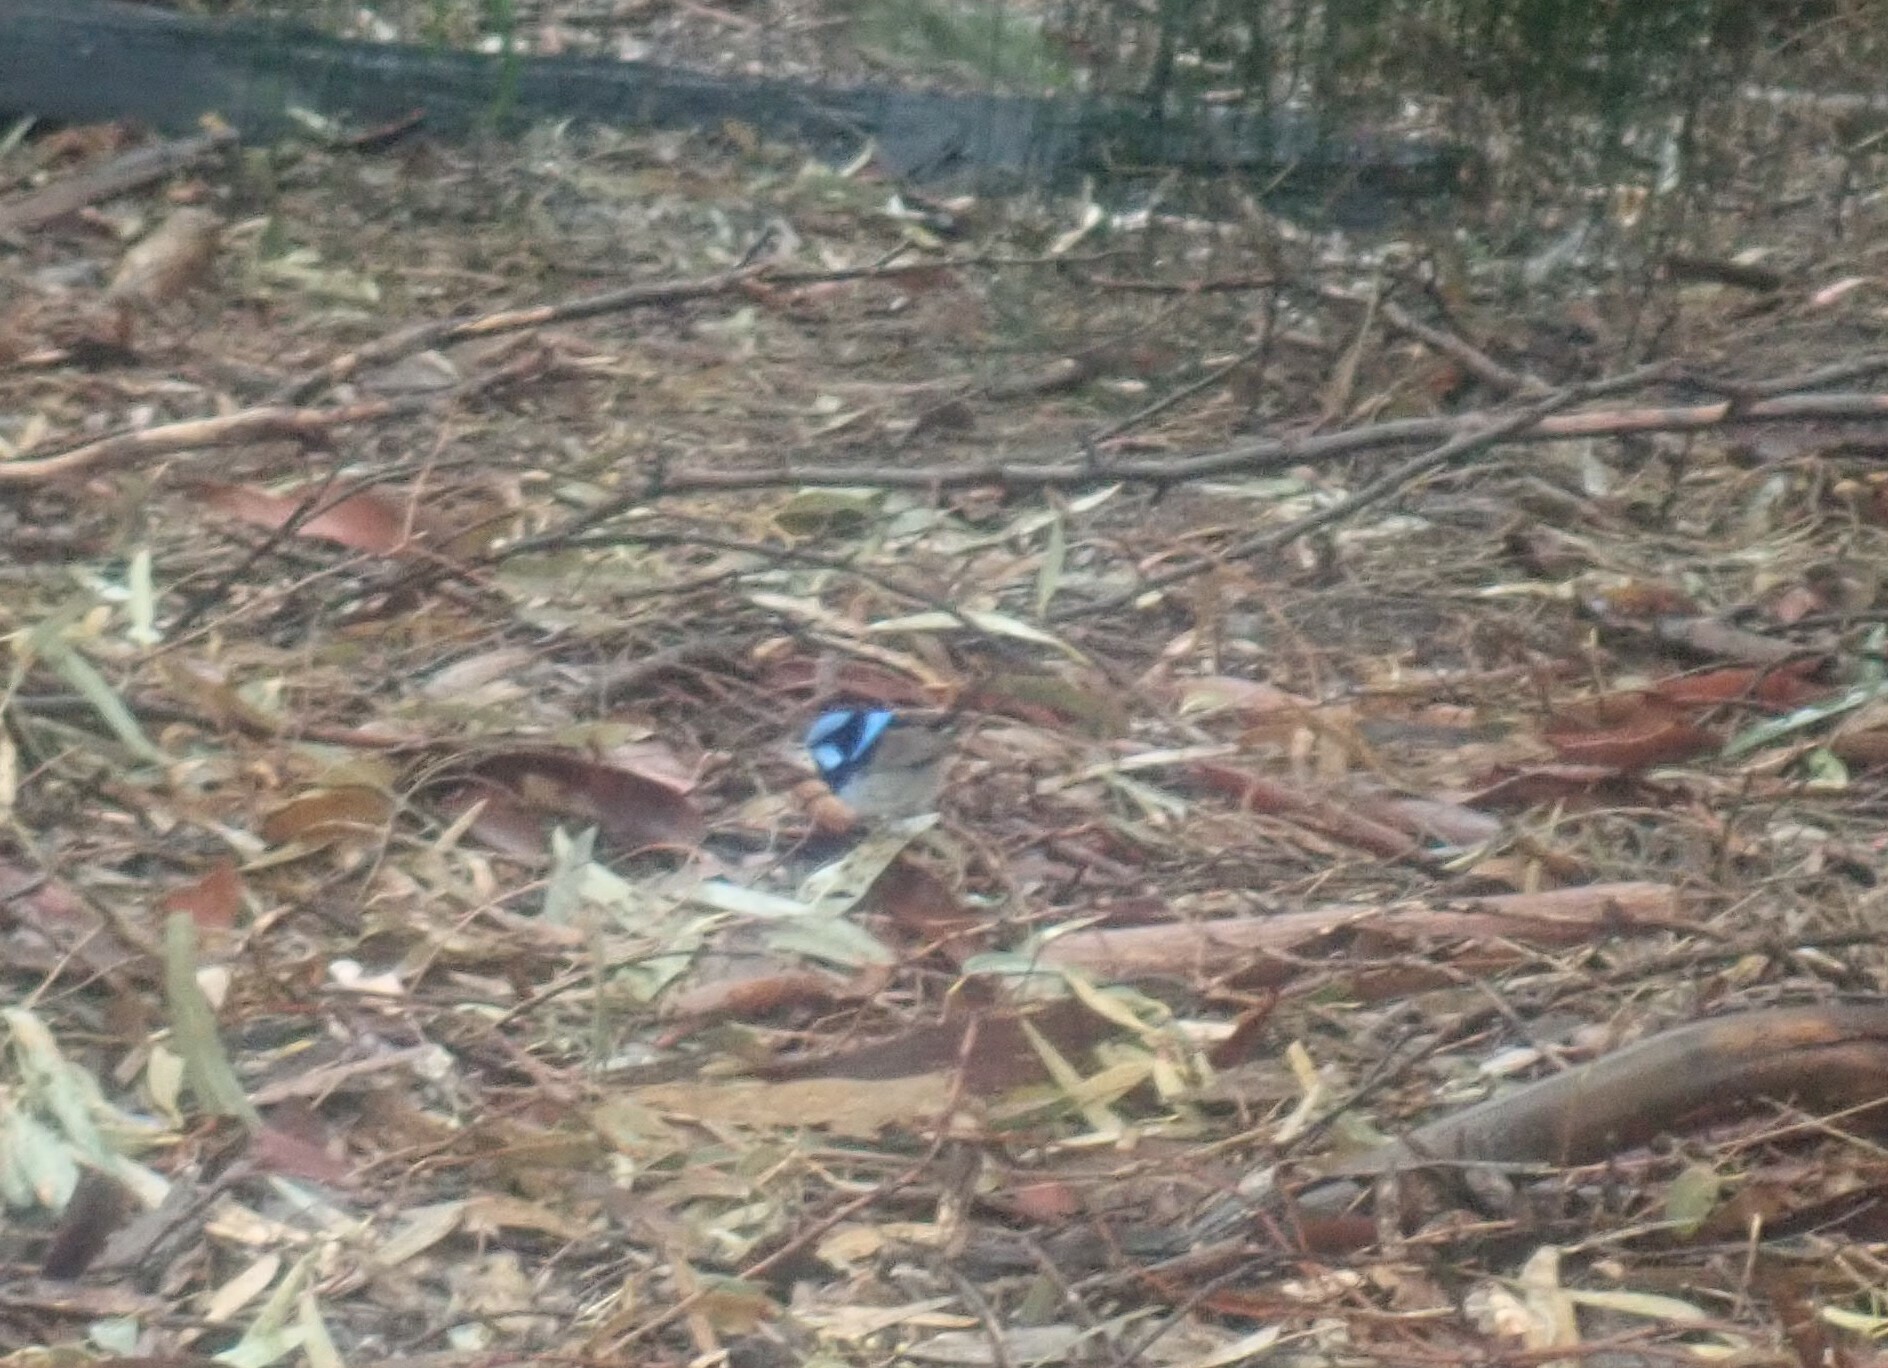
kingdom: Animalia
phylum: Chordata
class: Aves
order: Passeriformes
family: Maluridae
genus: Malurus
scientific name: Malurus cyaneus
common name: Superb fairywren
